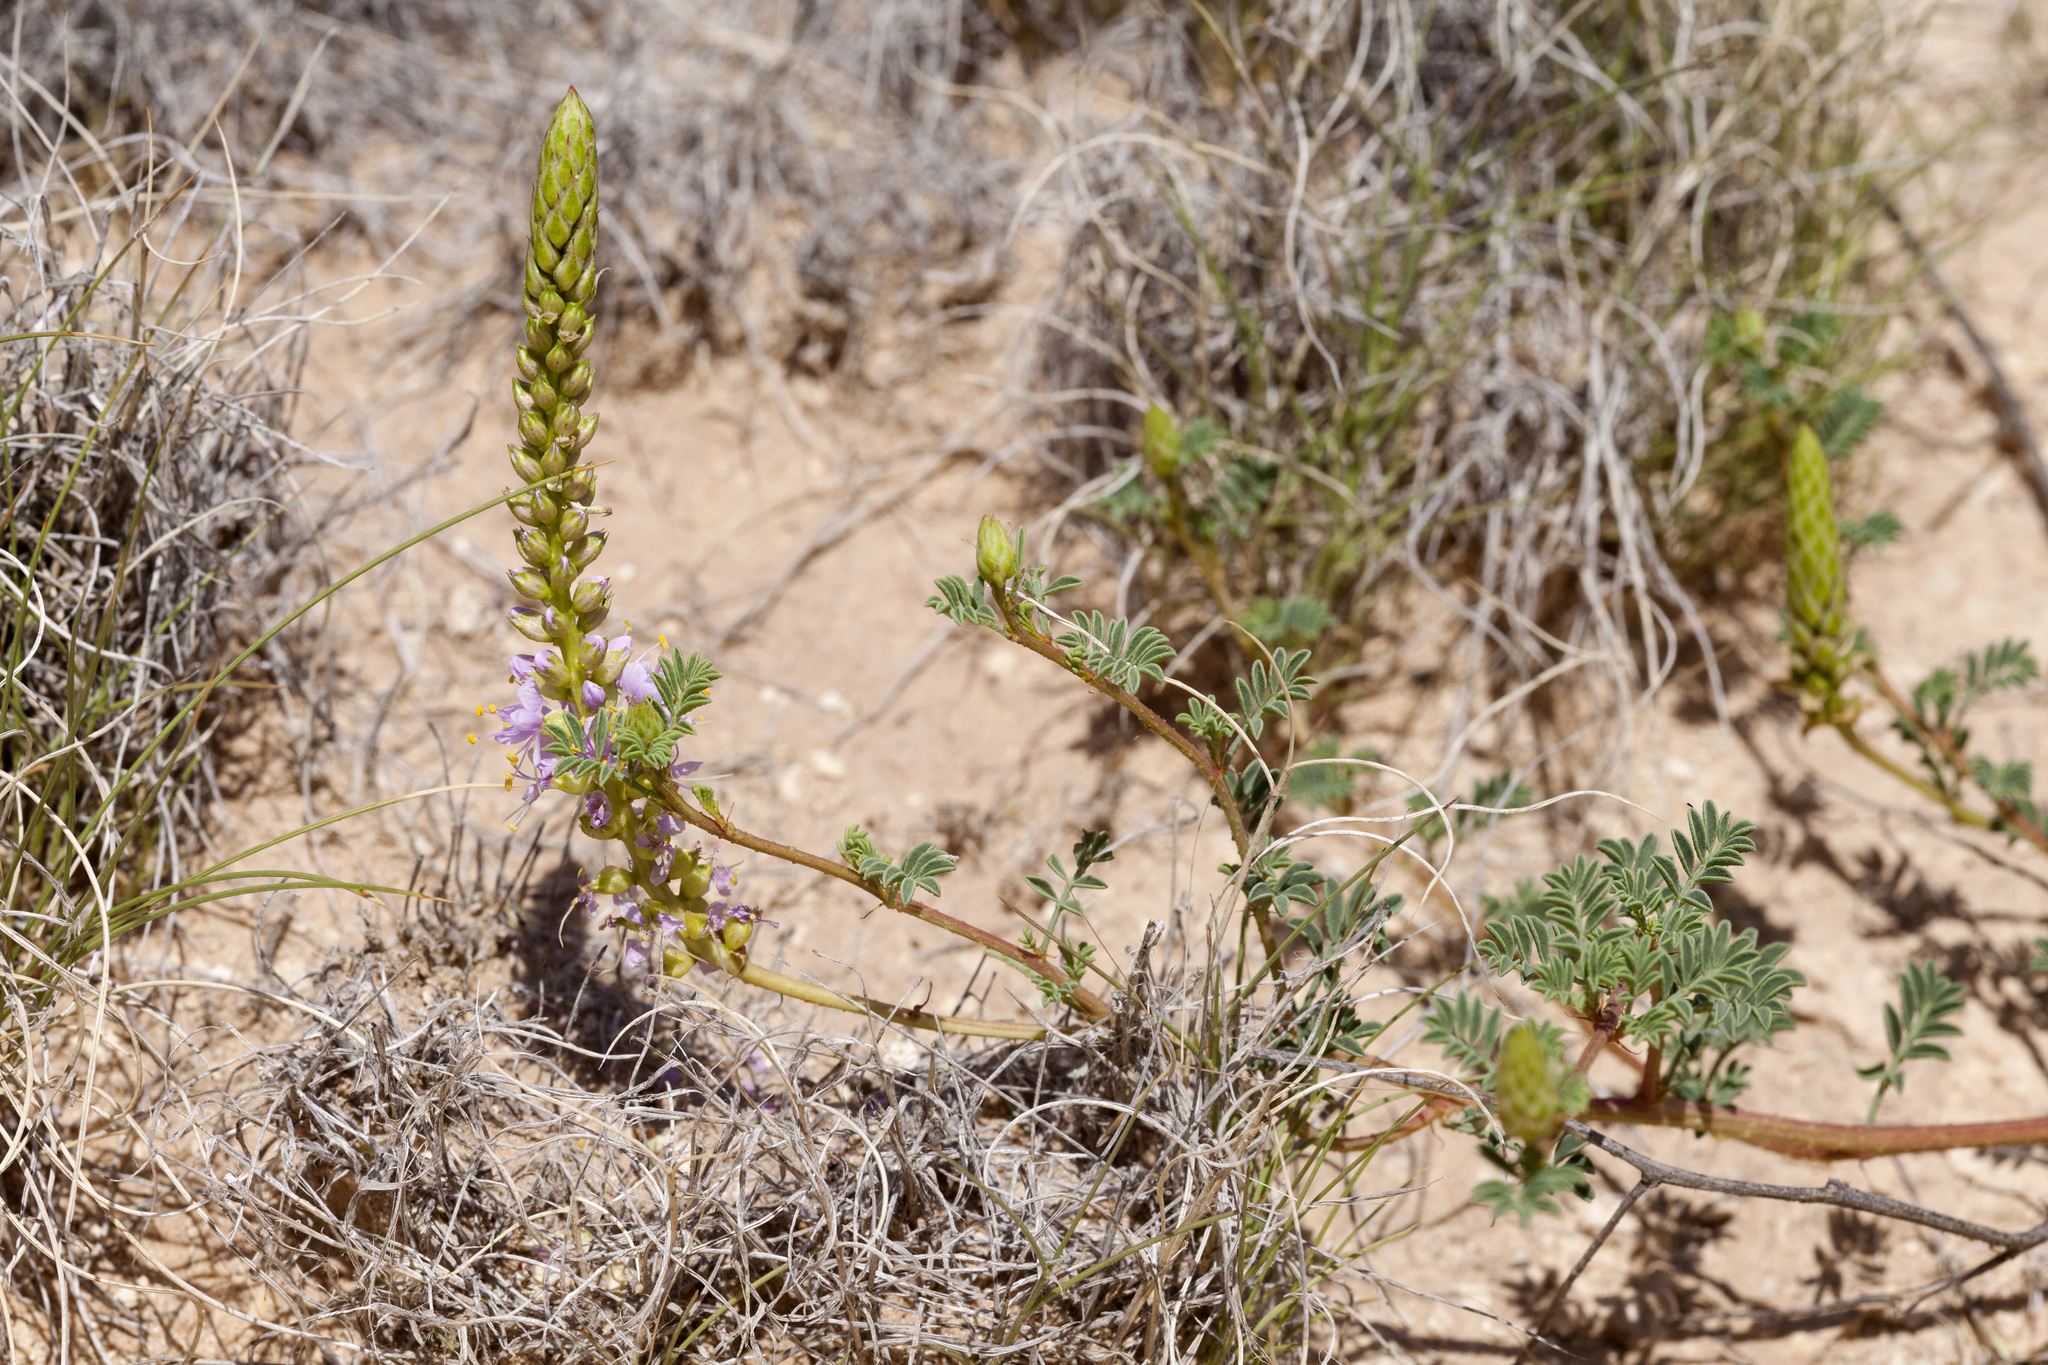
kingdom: Plantae
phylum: Tracheophyta
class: Magnoliopsida
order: Fabales
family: Fabaceae
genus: Dalea
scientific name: Dalea scariosa
